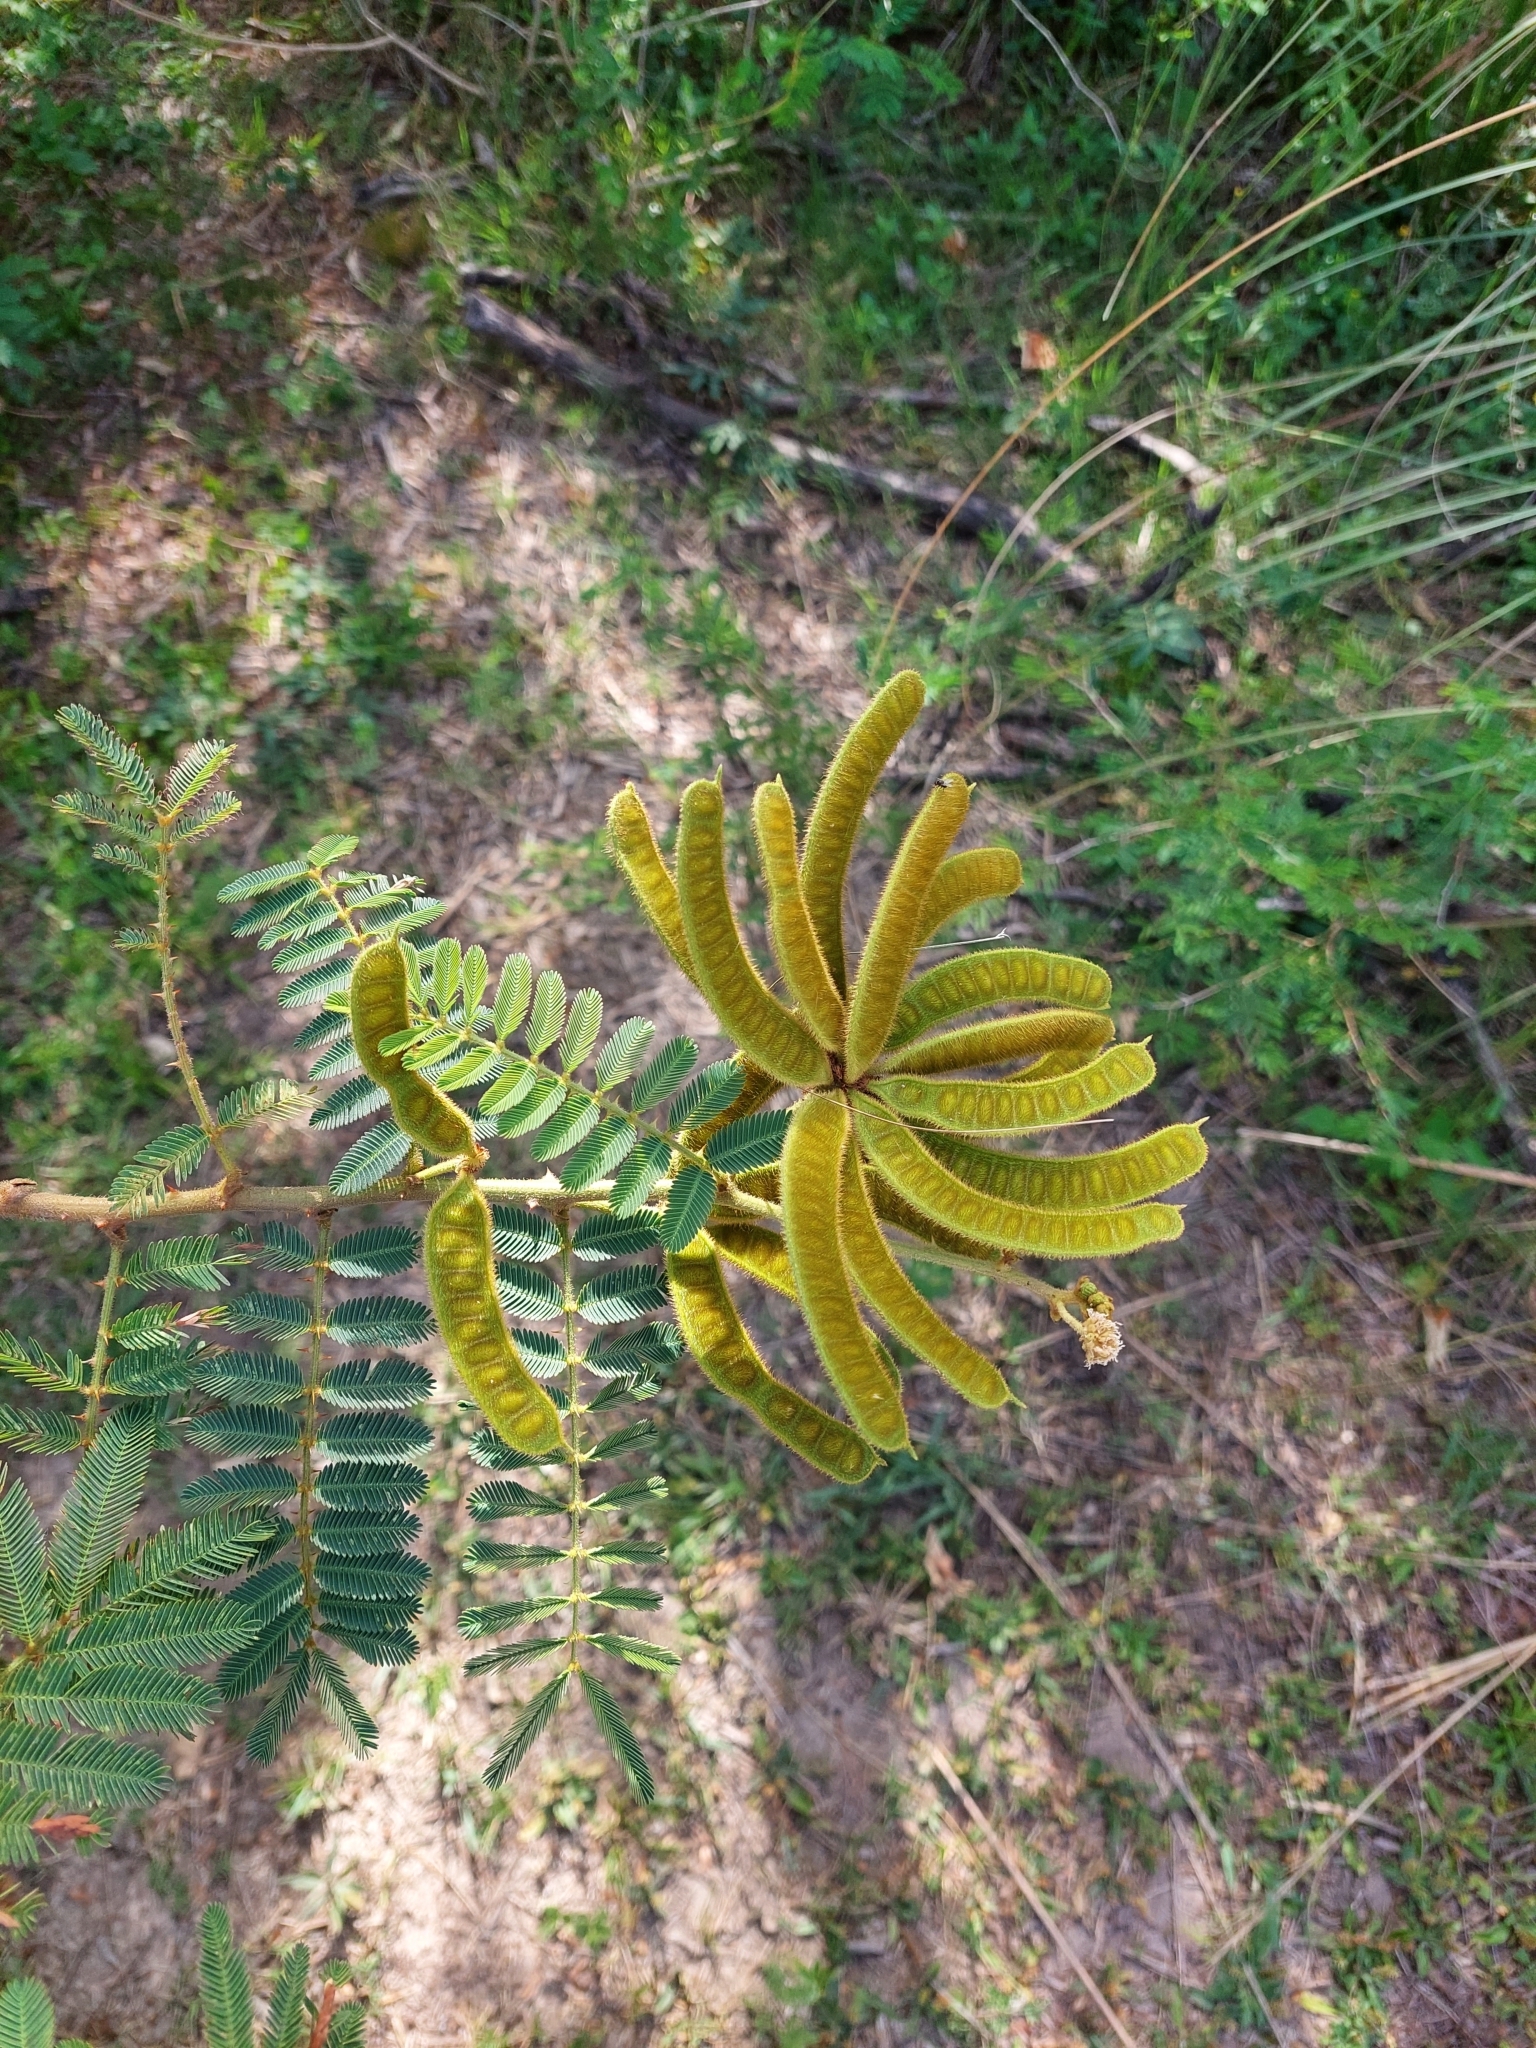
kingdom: Plantae
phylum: Tracheophyta
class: Magnoliopsida
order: Fabales
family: Fabaceae
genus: Mimosa
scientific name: Mimosa pigra
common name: Black mimosa
